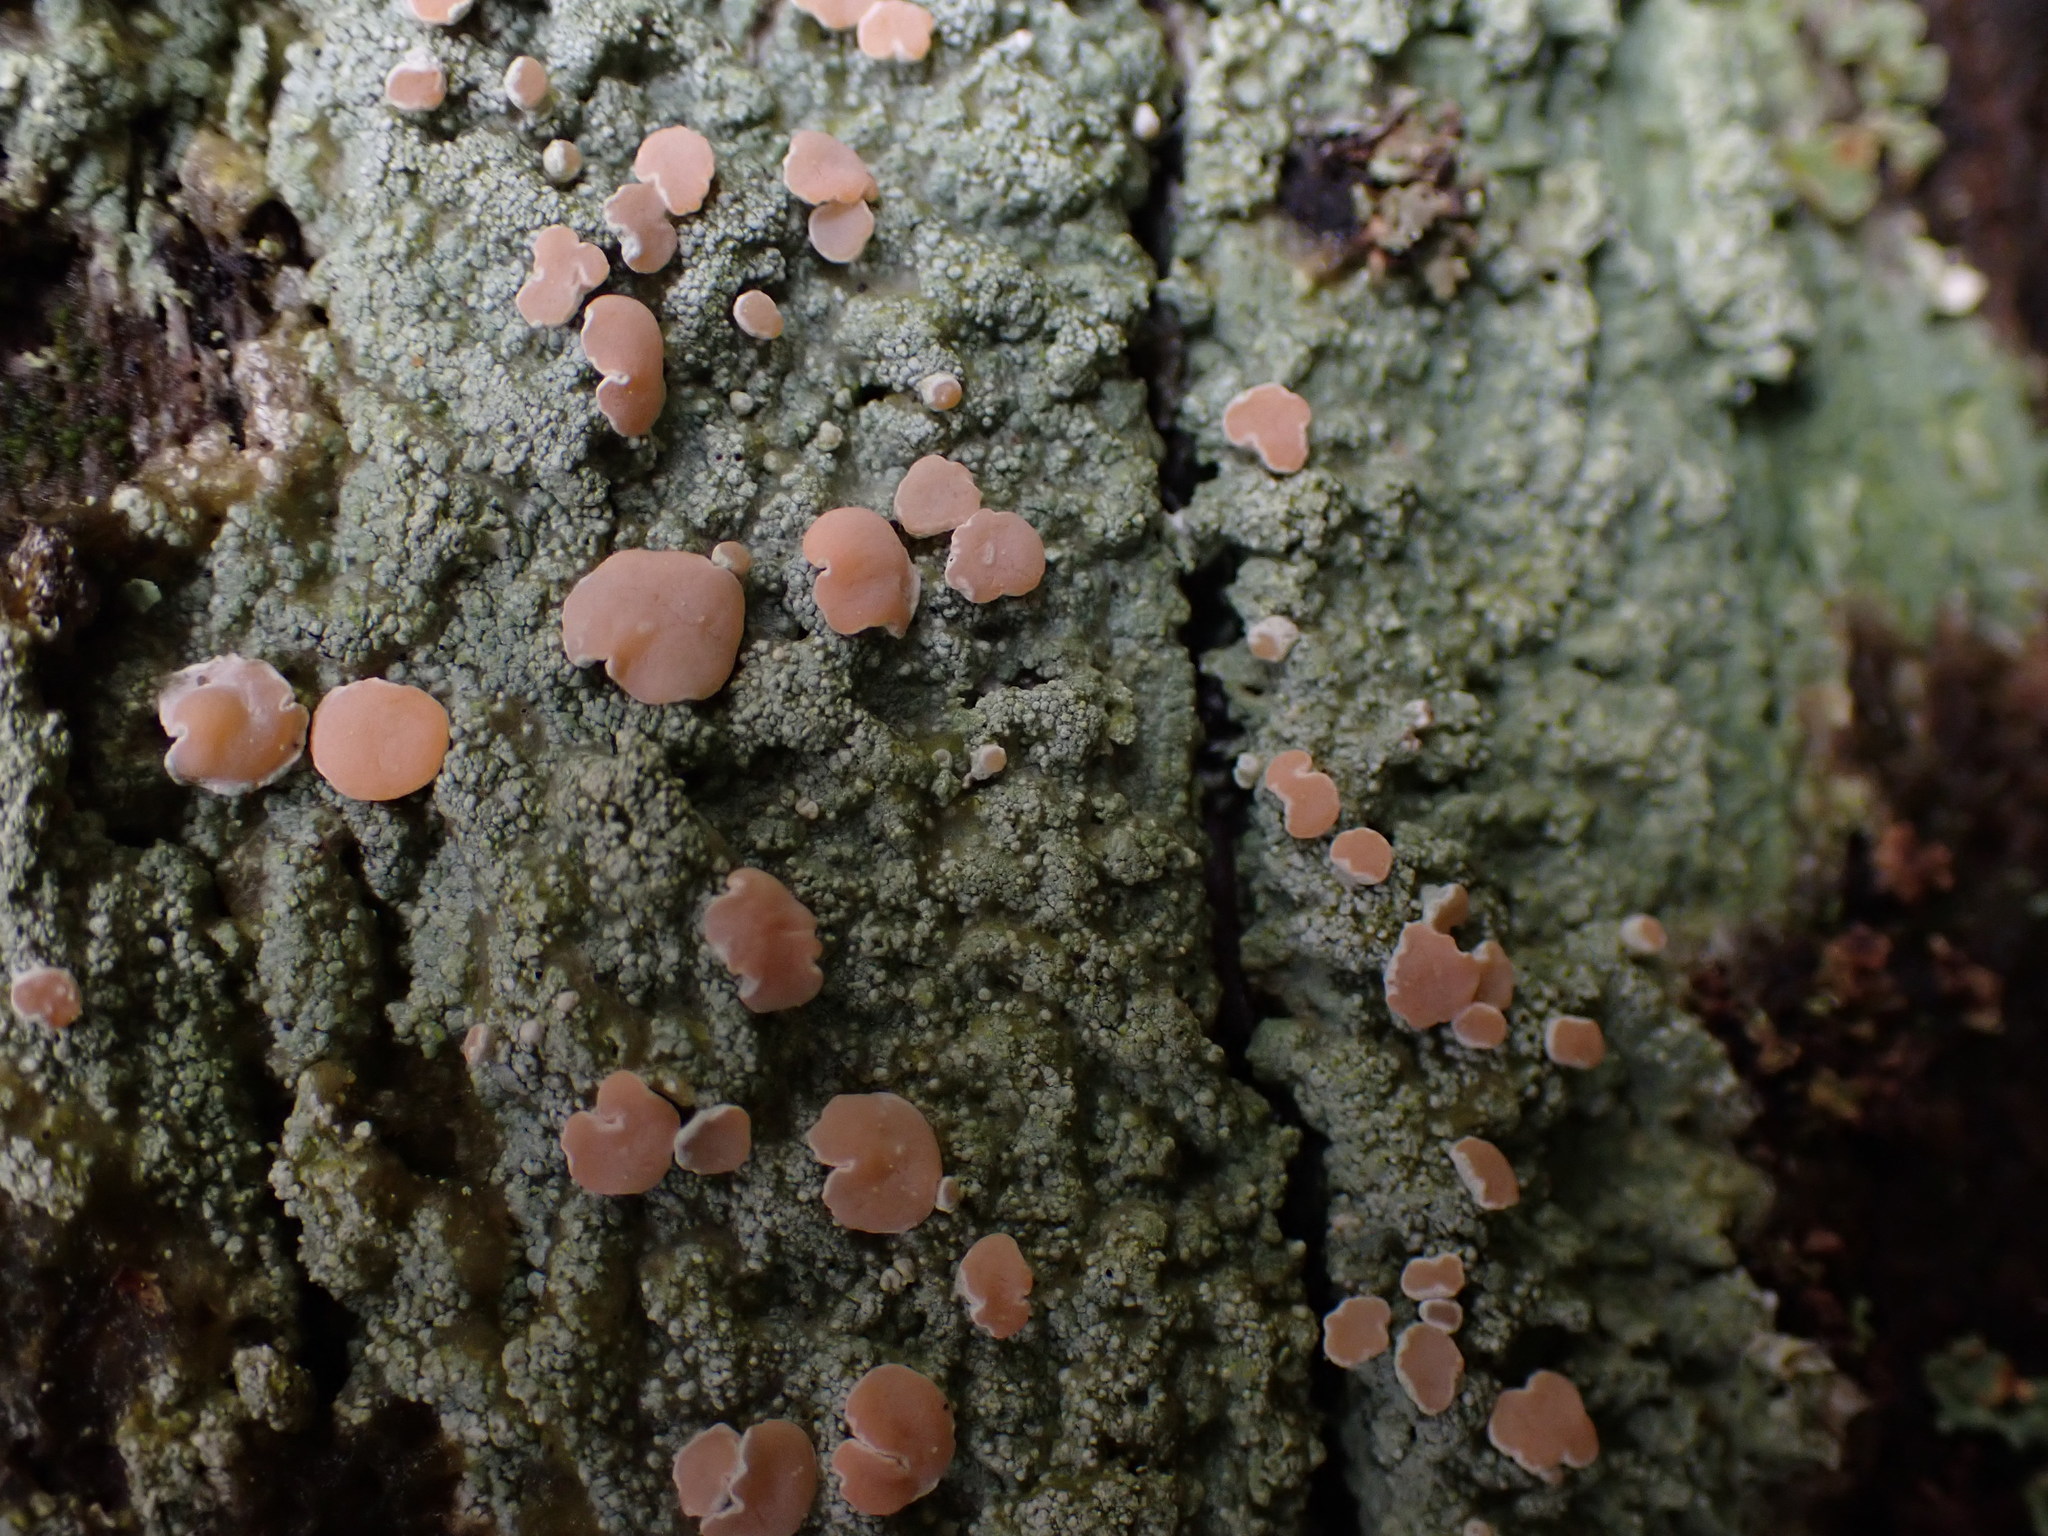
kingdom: Fungi
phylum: Ascomycota
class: Lecanoromycetes
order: Pertusariales
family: Icmadophilaceae
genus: Icmadophila
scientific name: Icmadophila ericetorum
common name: Candy lichen
